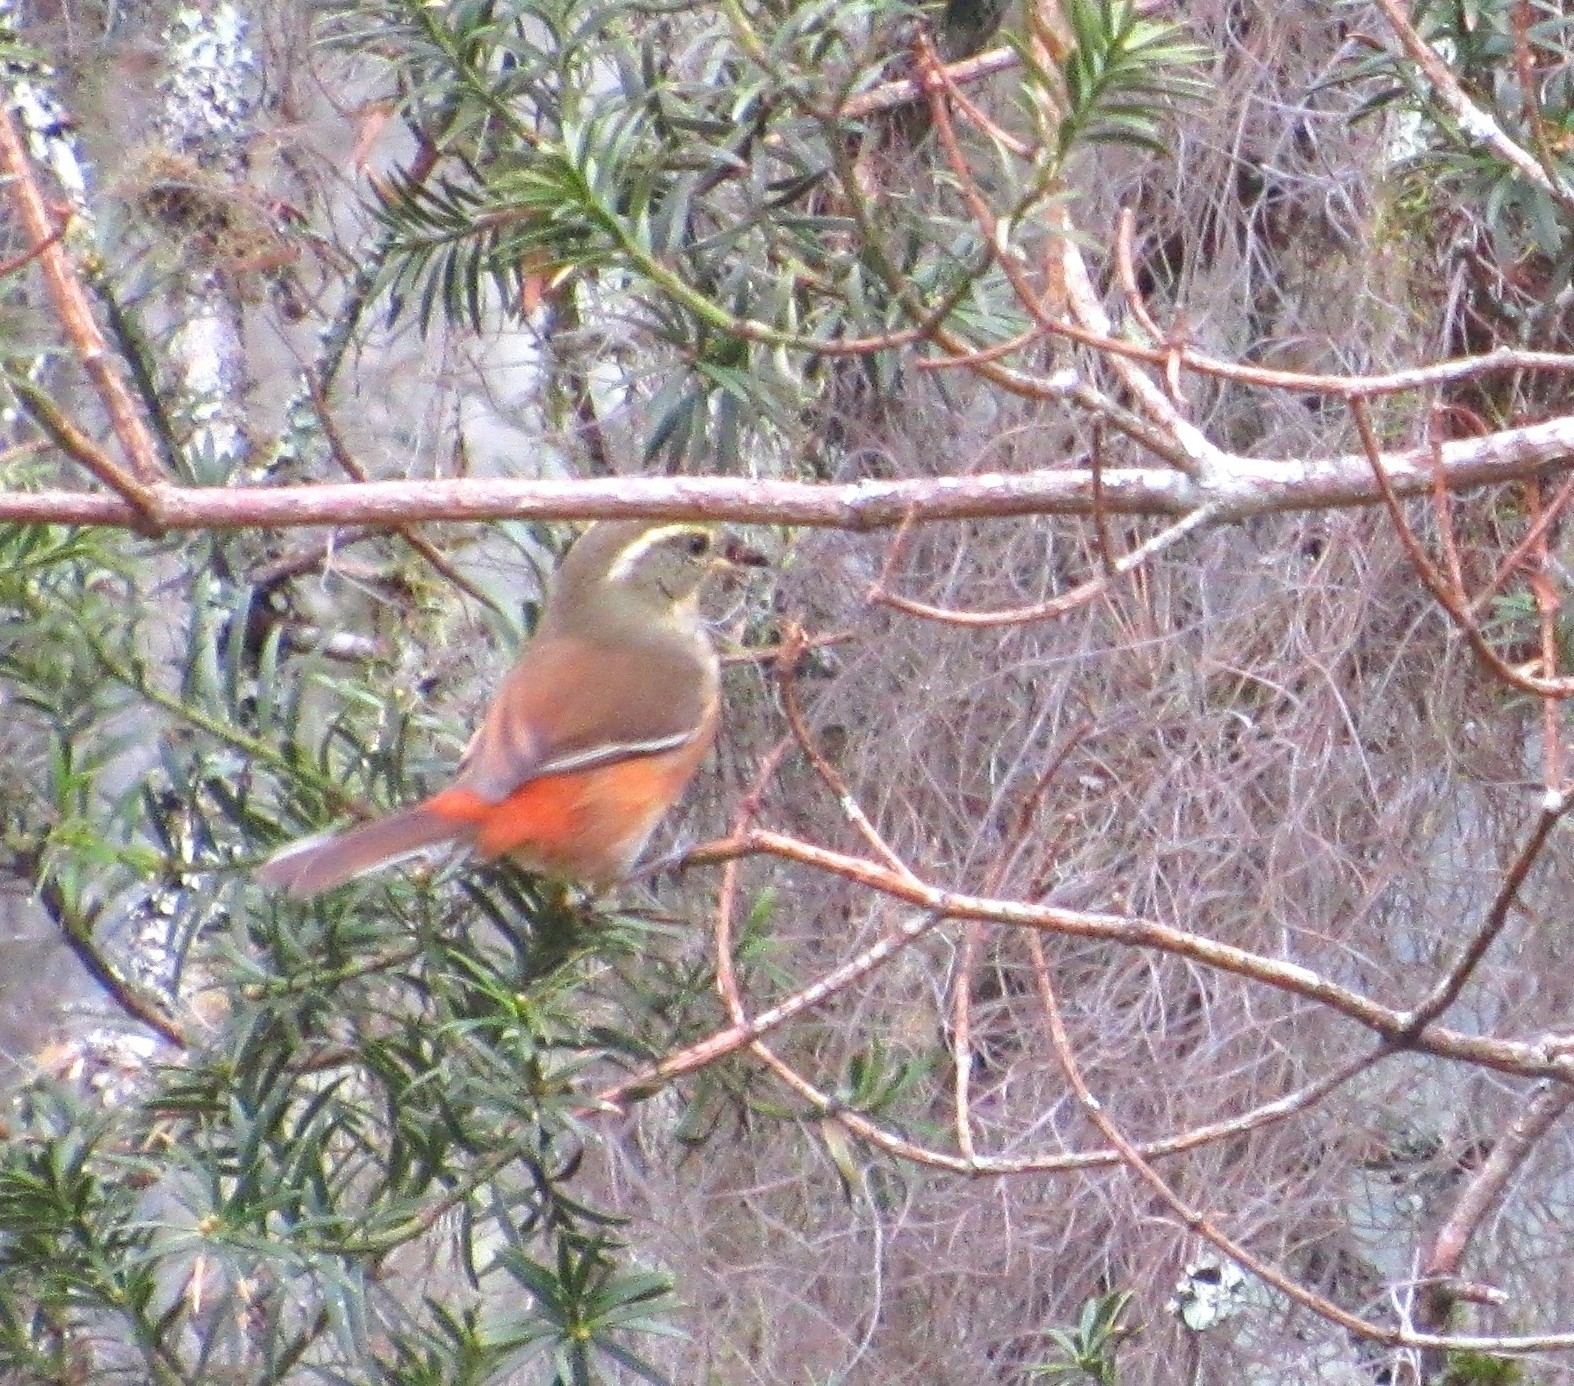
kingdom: Animalia
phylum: Chordata
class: Aves
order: Passeriformes
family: Thraupidae
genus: Microspingus
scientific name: Microspingus cabanisi
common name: Gray-throated warbling-finch
